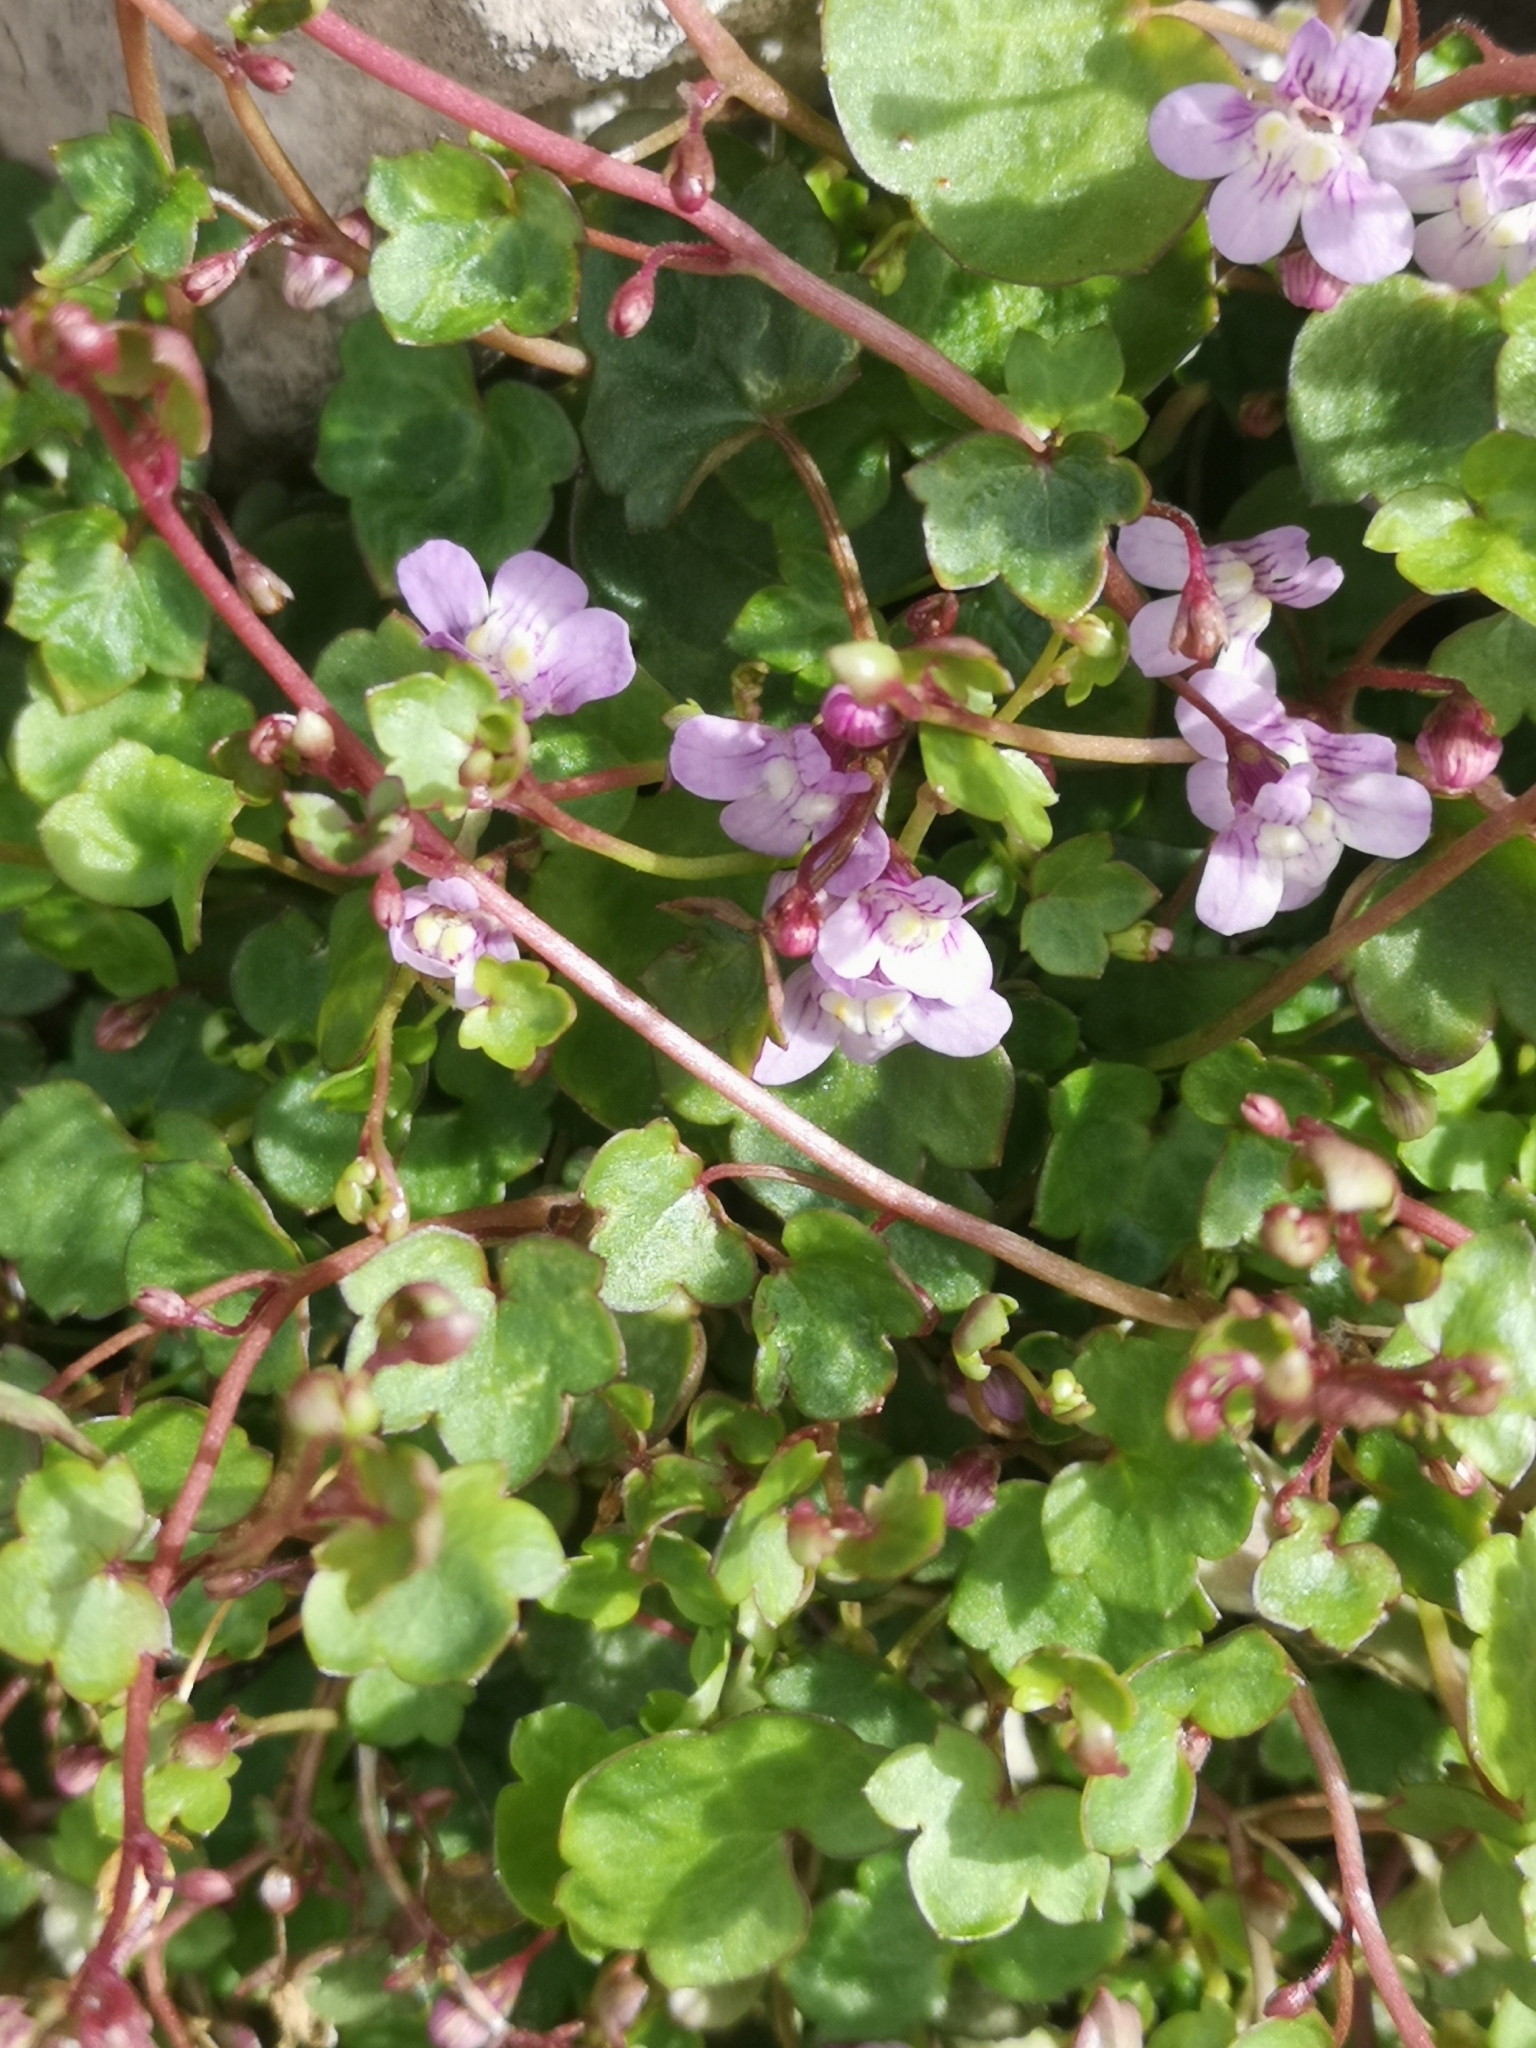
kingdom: Plantae
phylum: Tracheophyta
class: Magnoliopsida
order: Lamiales
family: Plantaginaceae
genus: Cymbalaria
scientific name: Cymbalaria muralis
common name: Ivy-leaved toadflax
